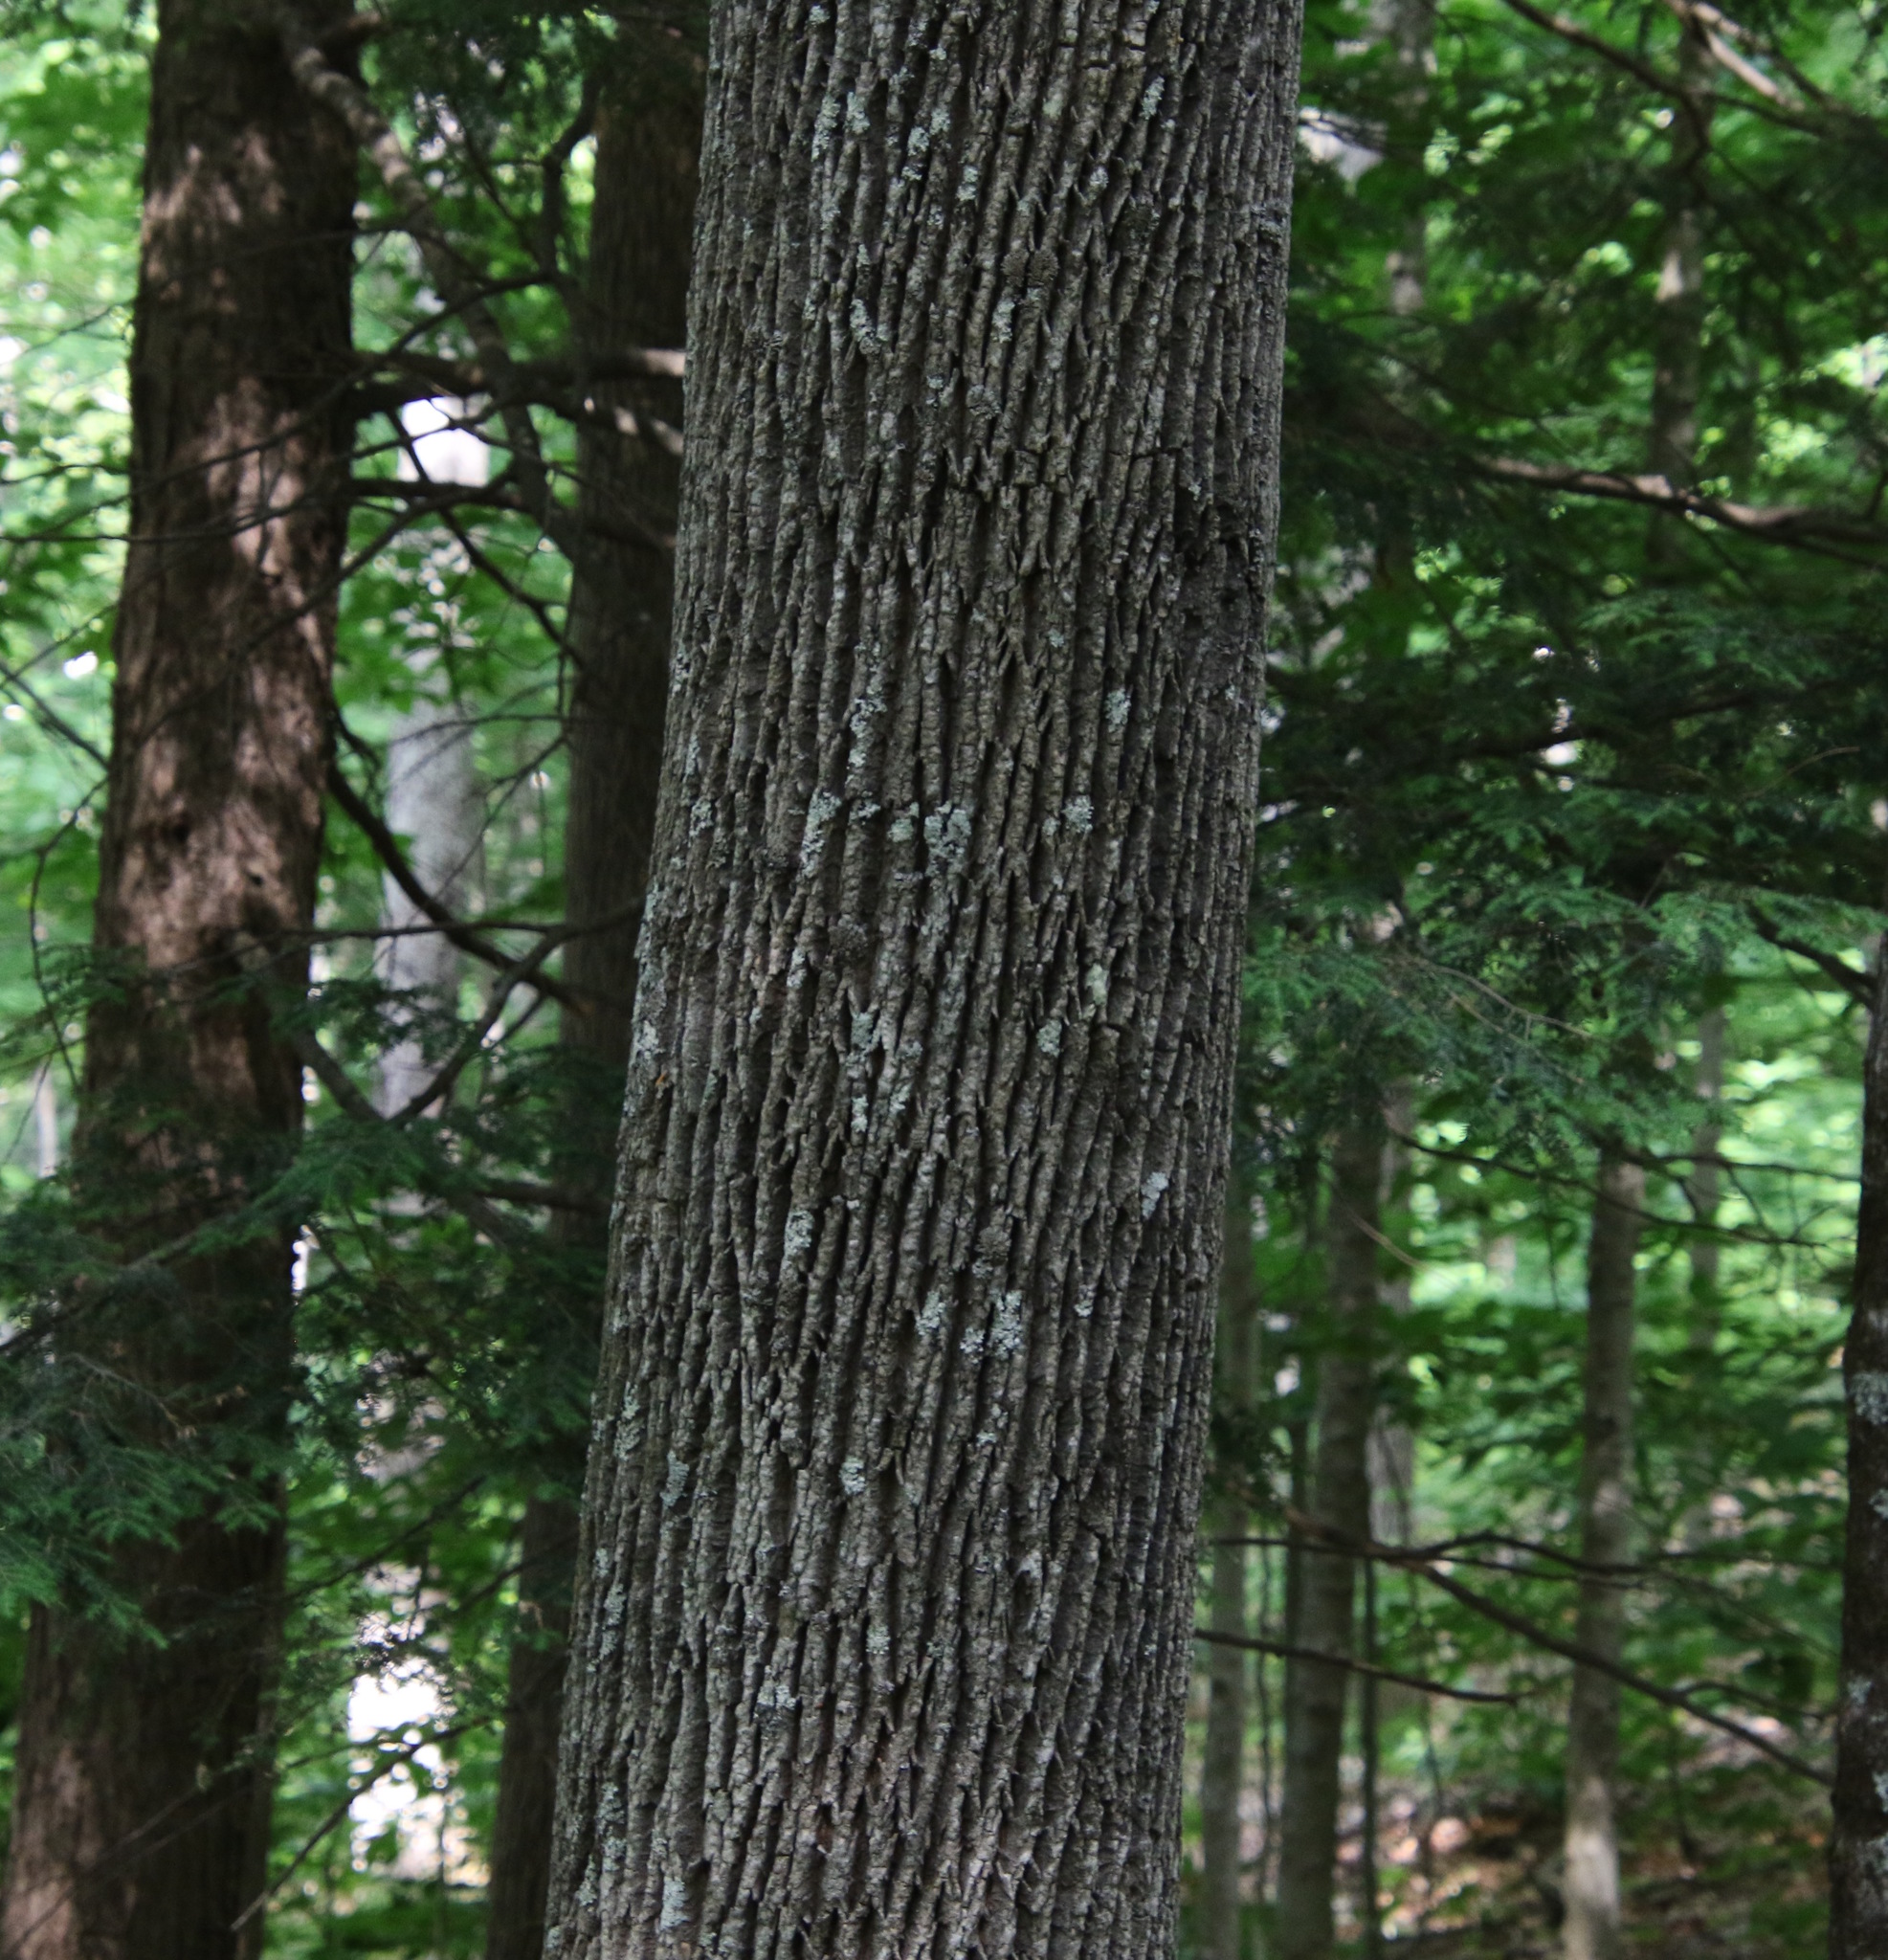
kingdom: Plantae
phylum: Tracheophyta
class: Magnoliopsida
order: Lamiales
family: Oleaceae
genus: Fraxinus
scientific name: Fraxinus americana
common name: White ash
